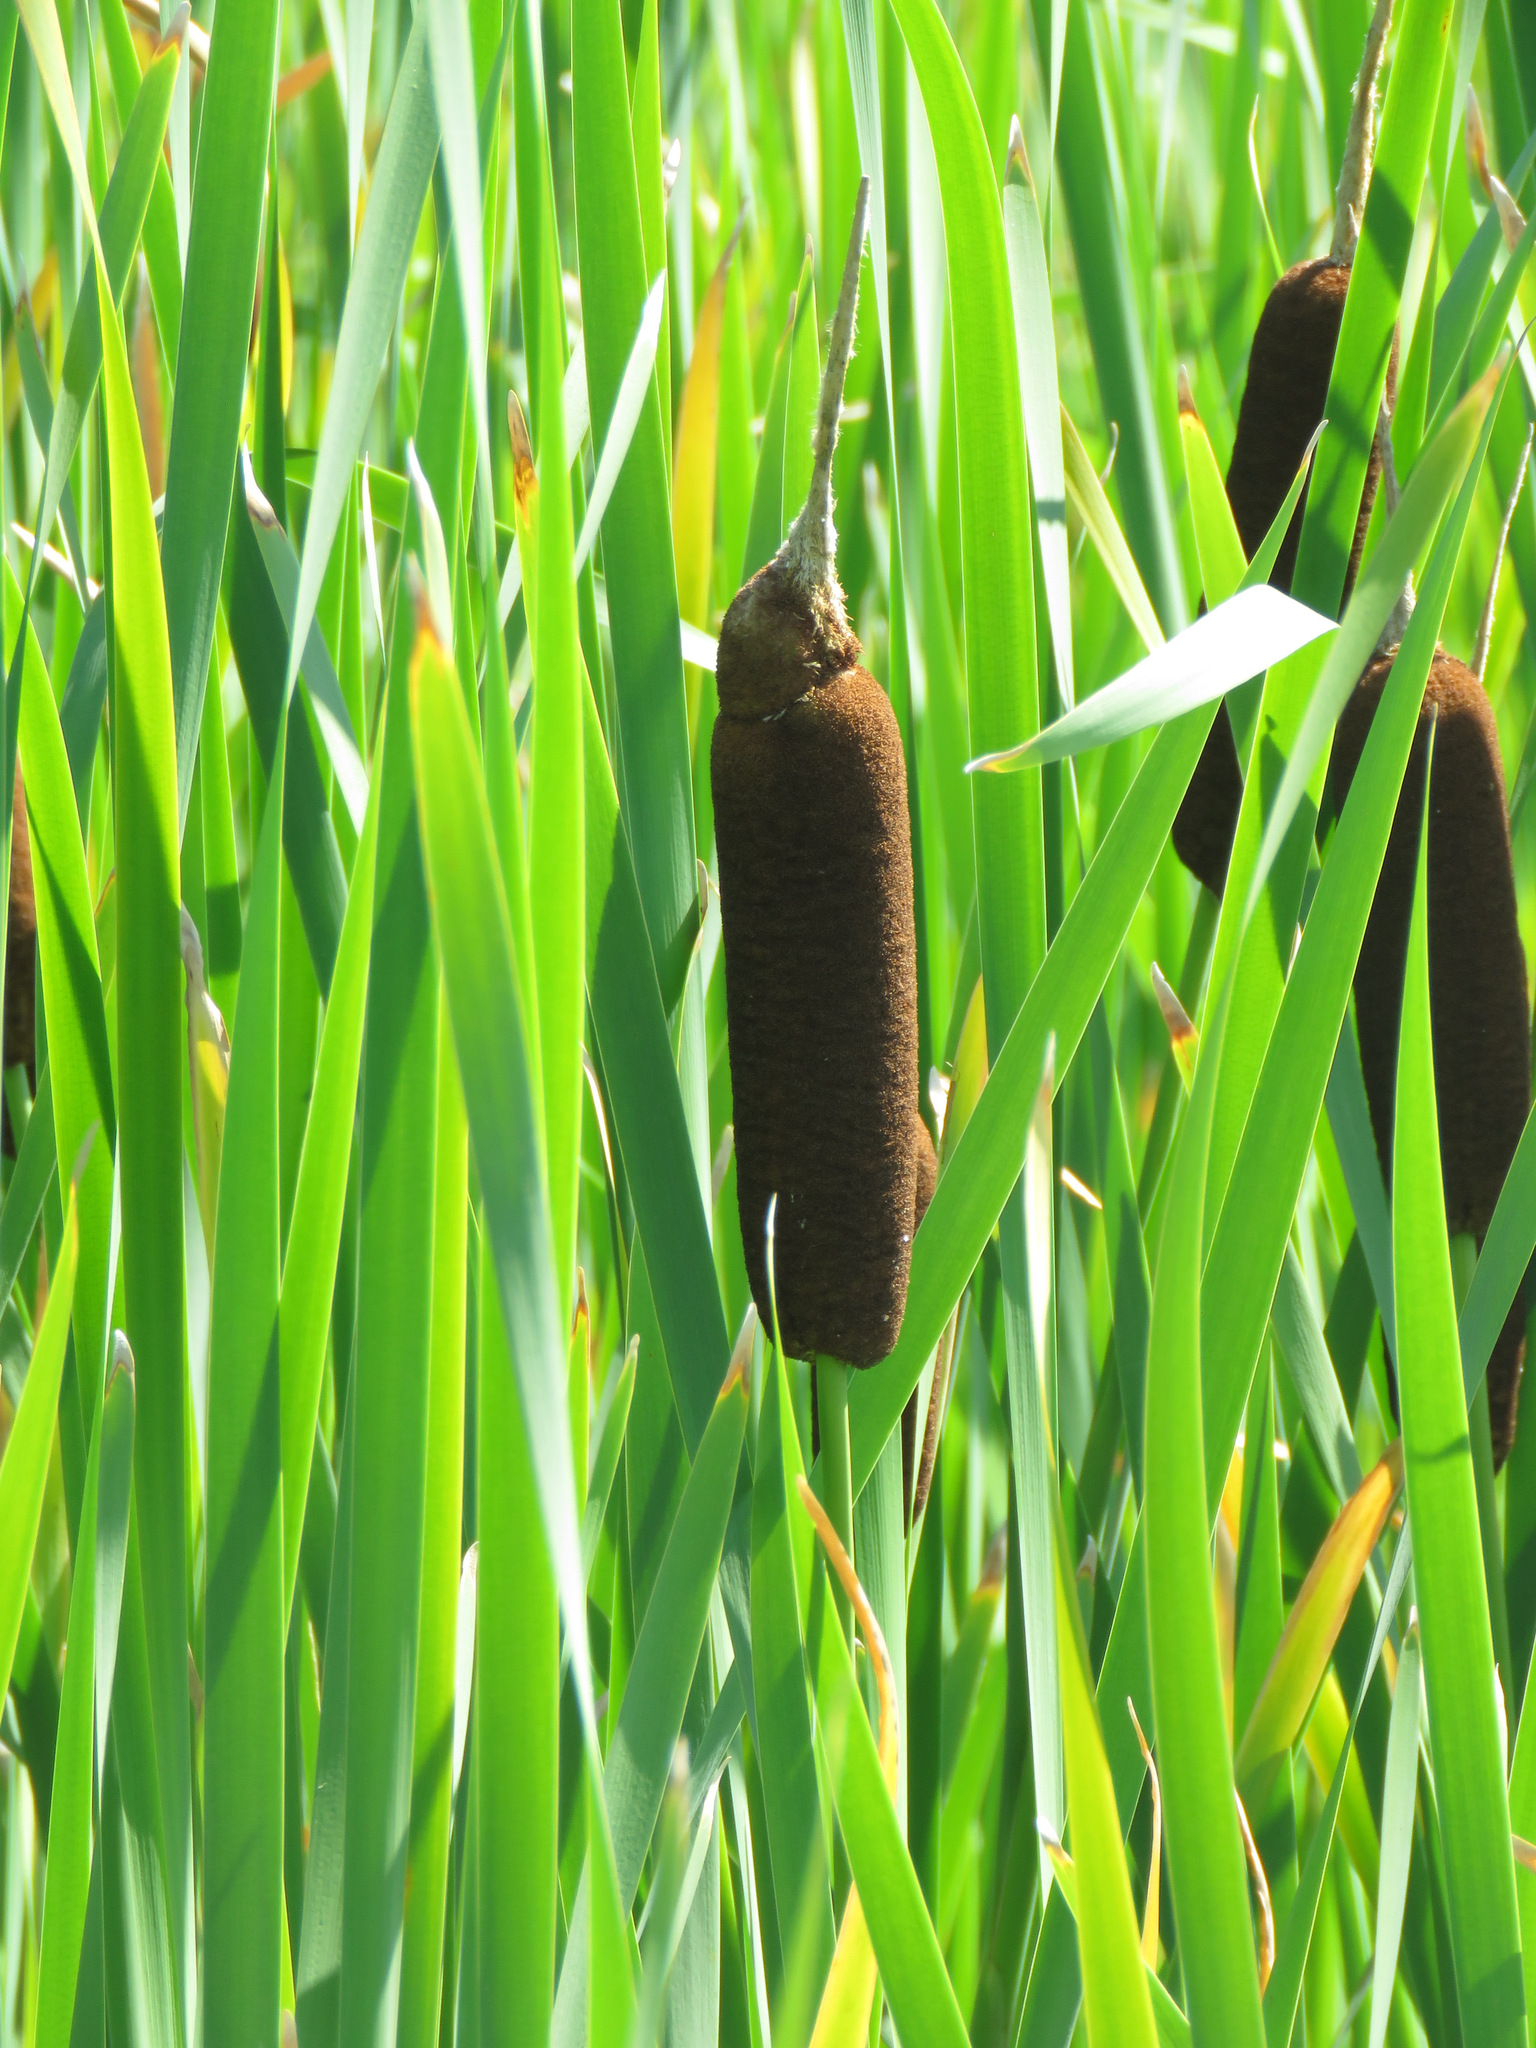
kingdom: Plantae
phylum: Tracheophyta
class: Liliopsida
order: Poales
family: Typhaceae
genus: Typha
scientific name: Typha latifolia
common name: Broadleaf cattail
